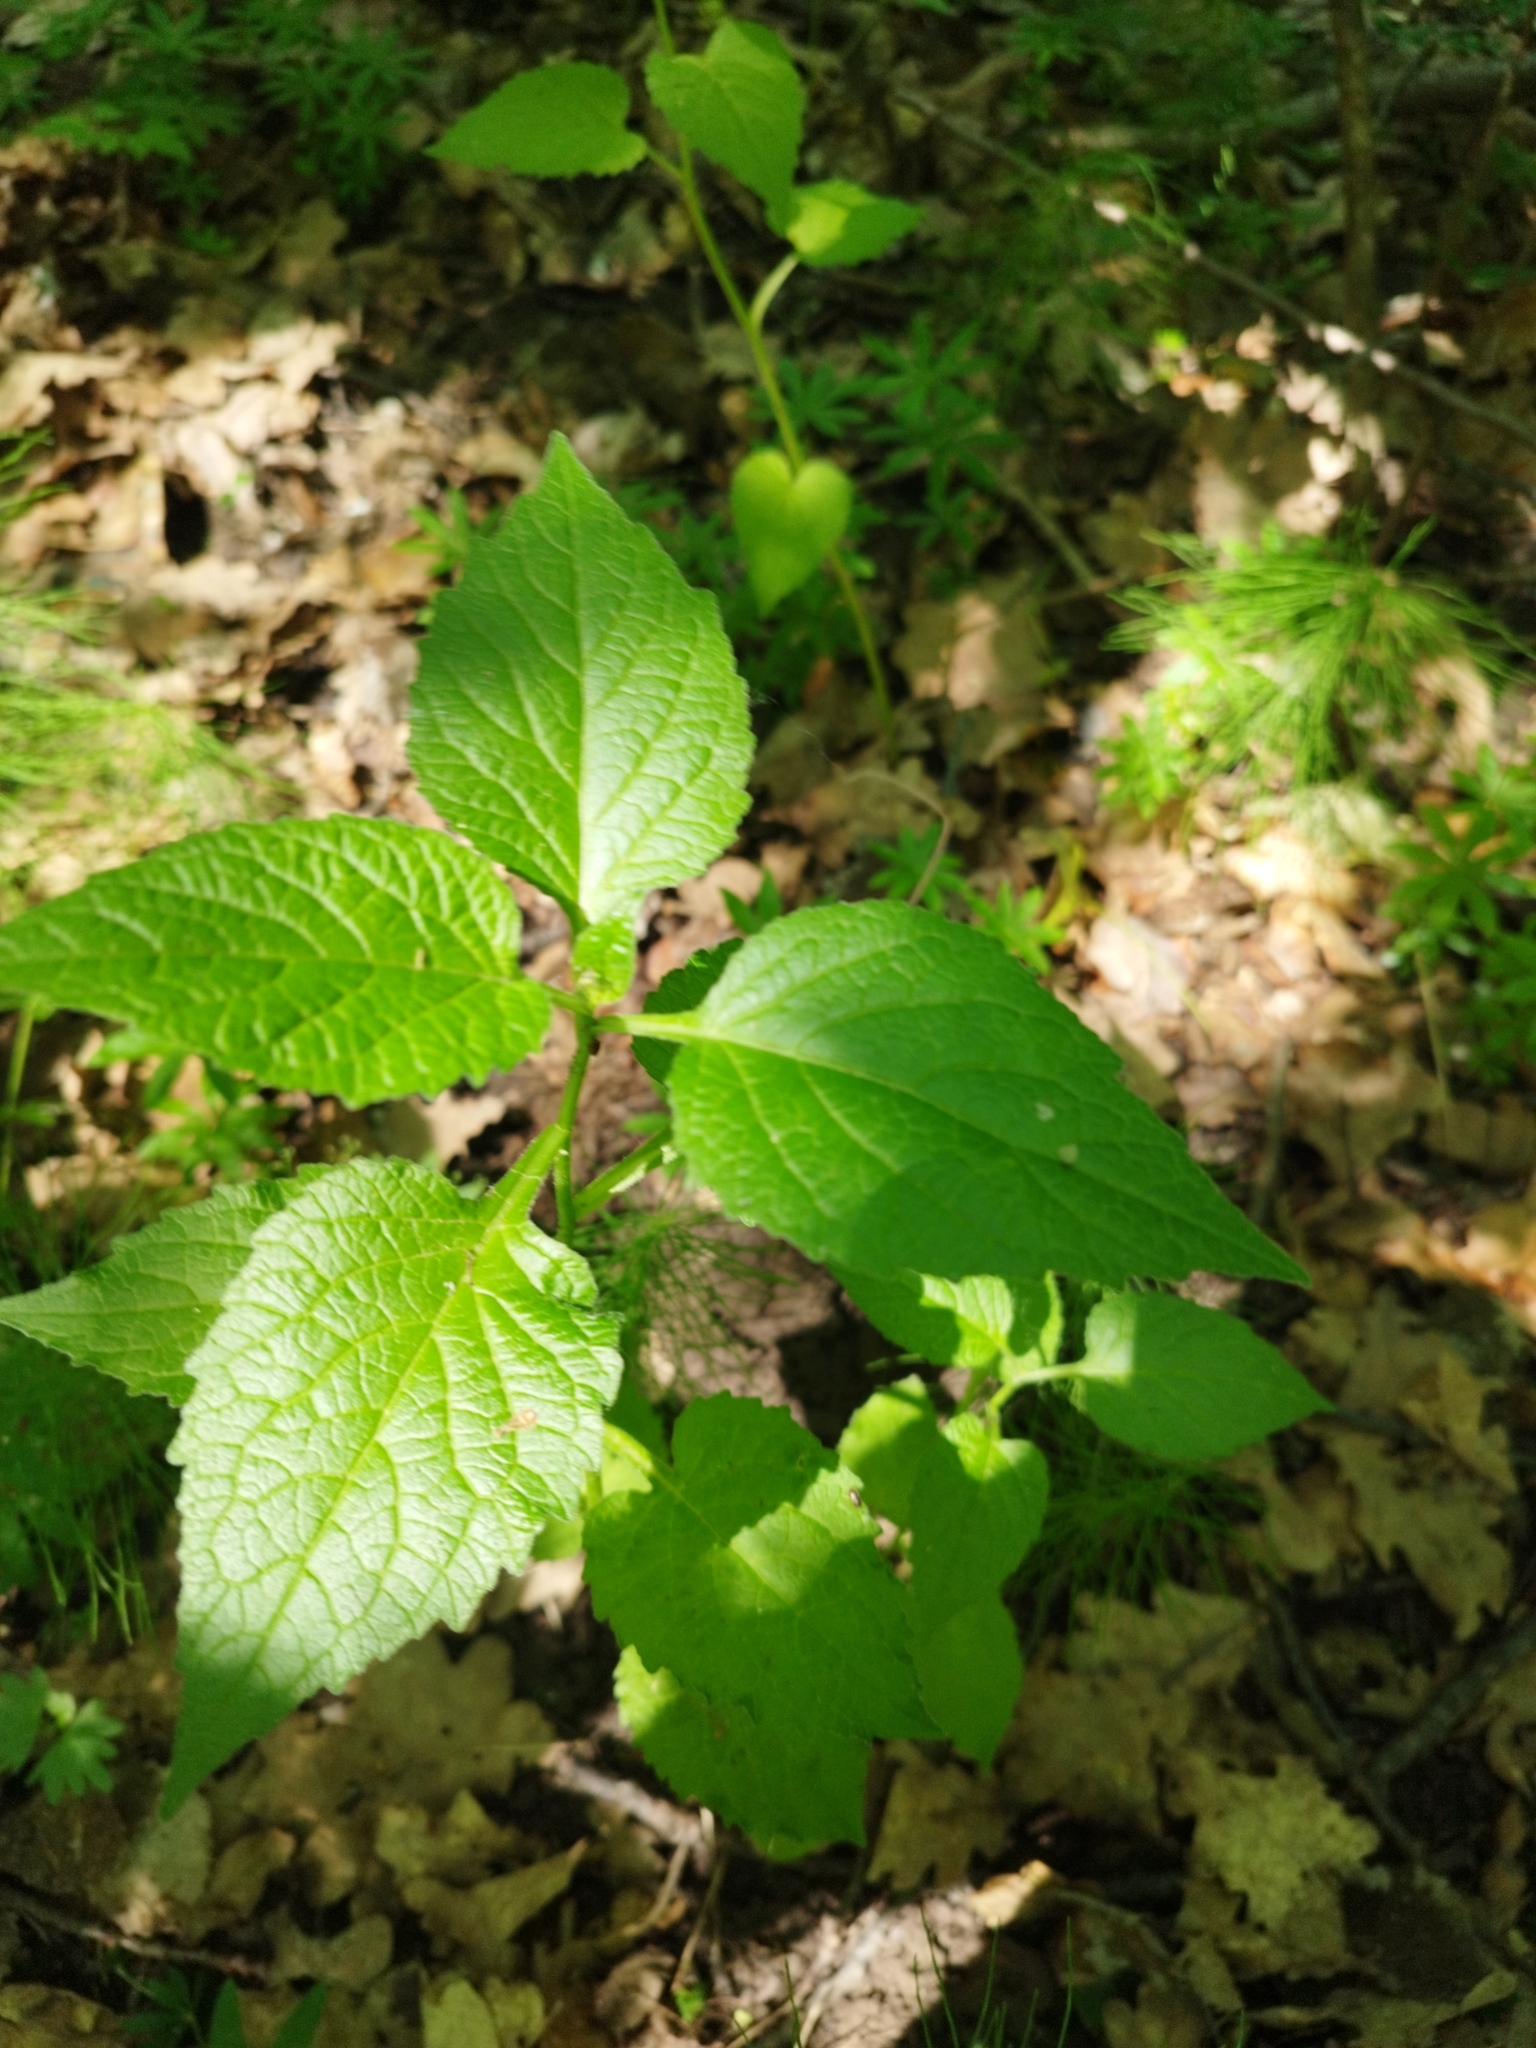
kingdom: Plantae
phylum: Tracheophyta
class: Magnoliopsida
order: Asterales
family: Campanulaceae
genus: Campanula
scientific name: Campanula latifolia
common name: Giant bellflower
